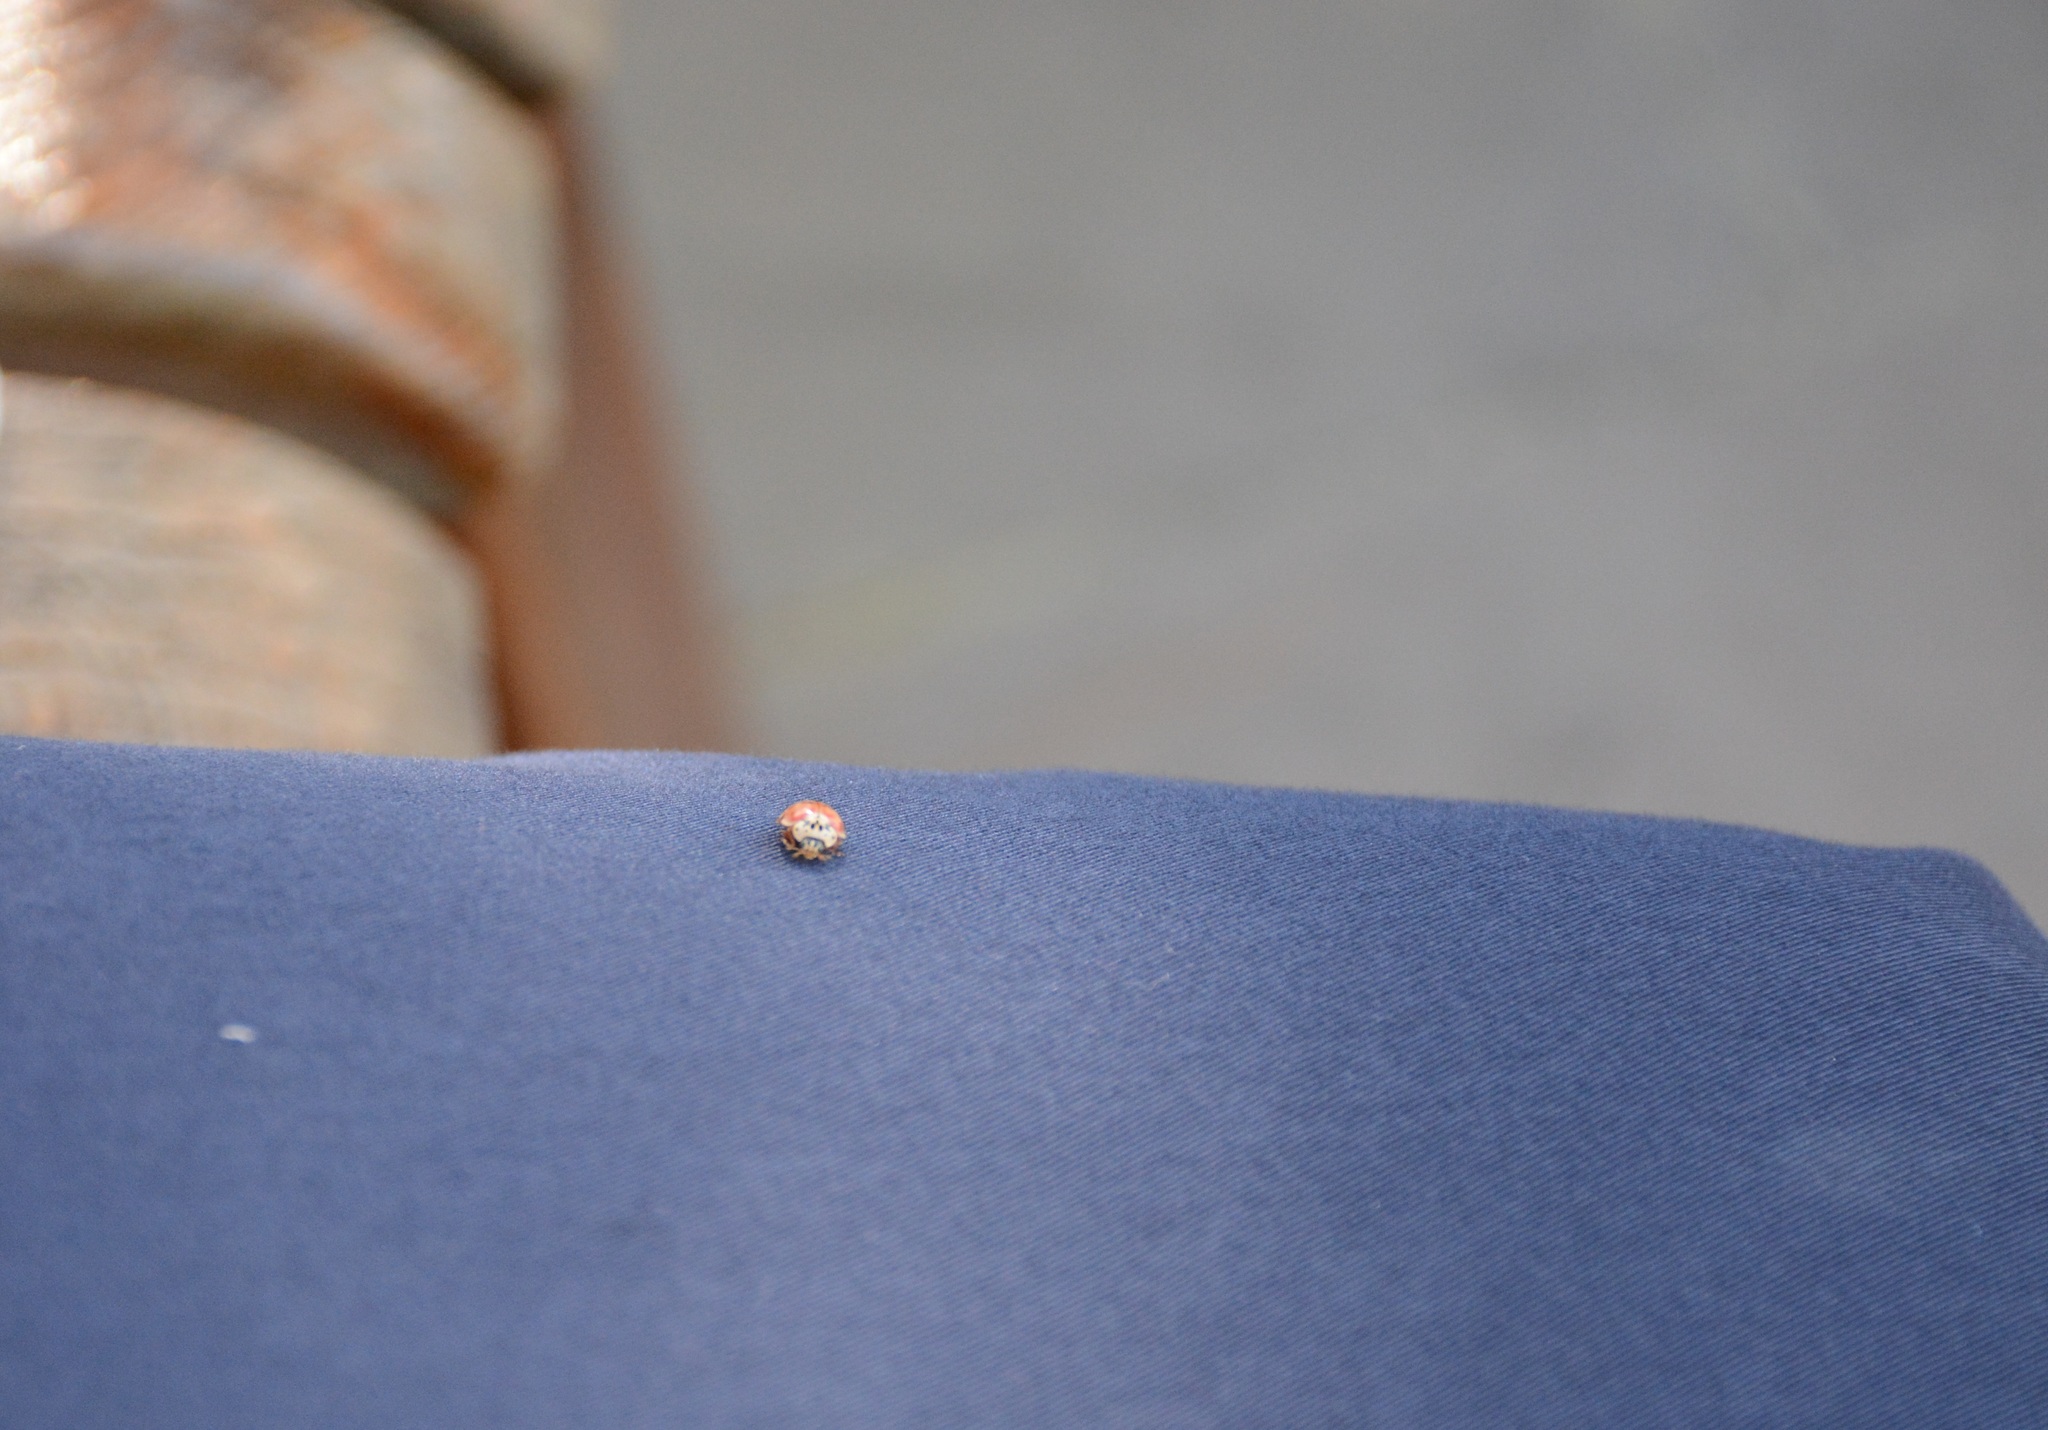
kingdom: Animalia
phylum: Arthropoda
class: Insecta
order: Coleoptera
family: Coccinellidae
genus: Harmonia
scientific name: Harmonia quadripunctata
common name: Cream-streaked ladybird
